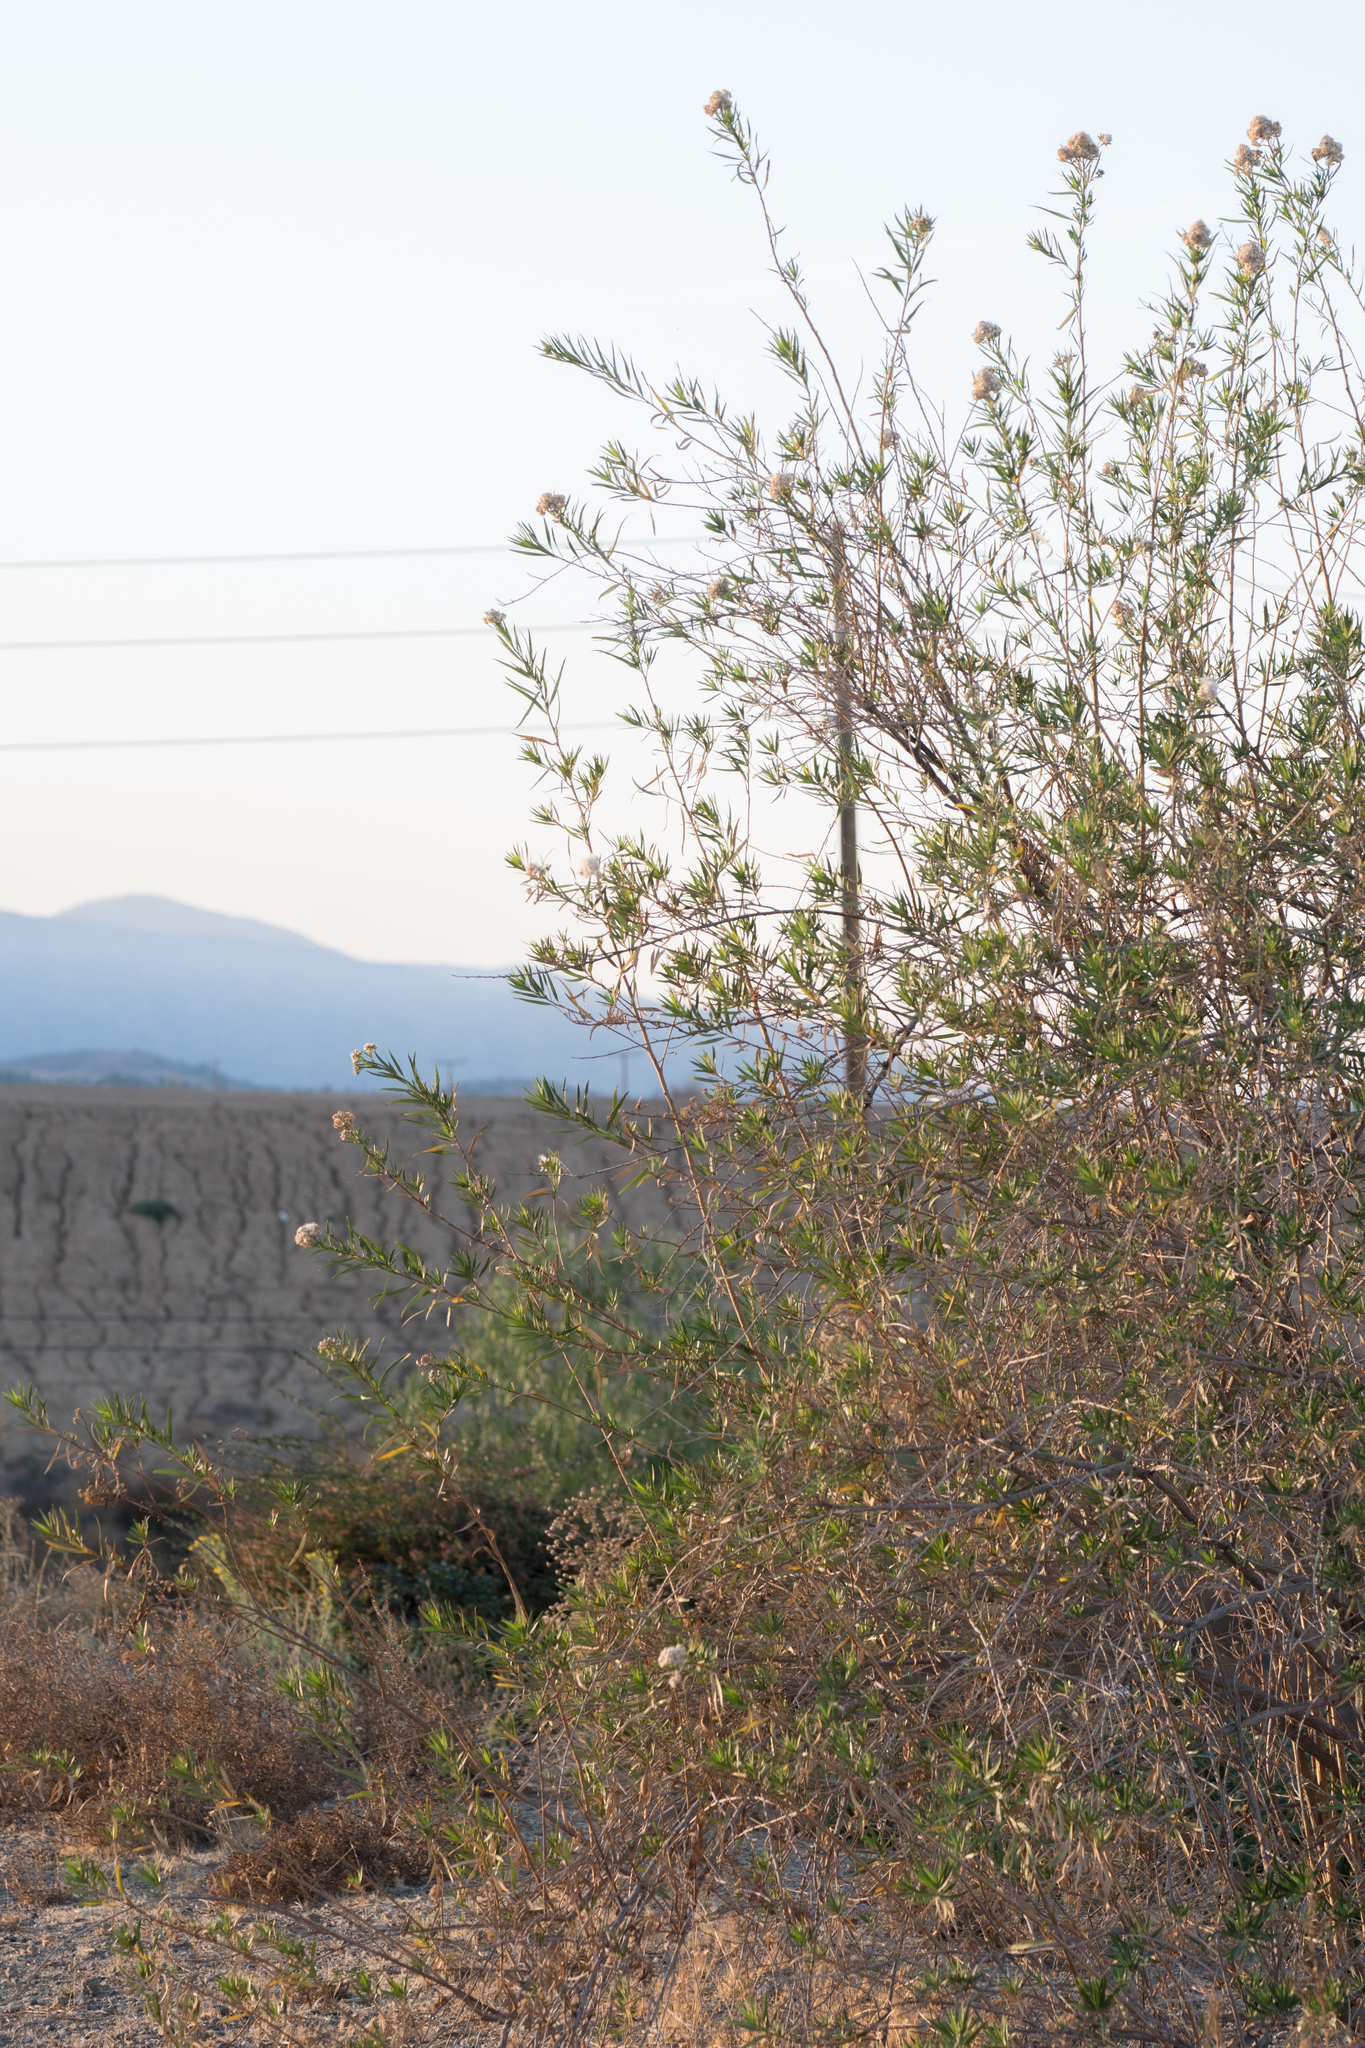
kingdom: Plantae
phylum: Tracheophyta
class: Magnoliopsida
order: Asterales
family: Asteraceae
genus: Baccharis
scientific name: Baccharis salicifolia
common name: Sticky baccharis
